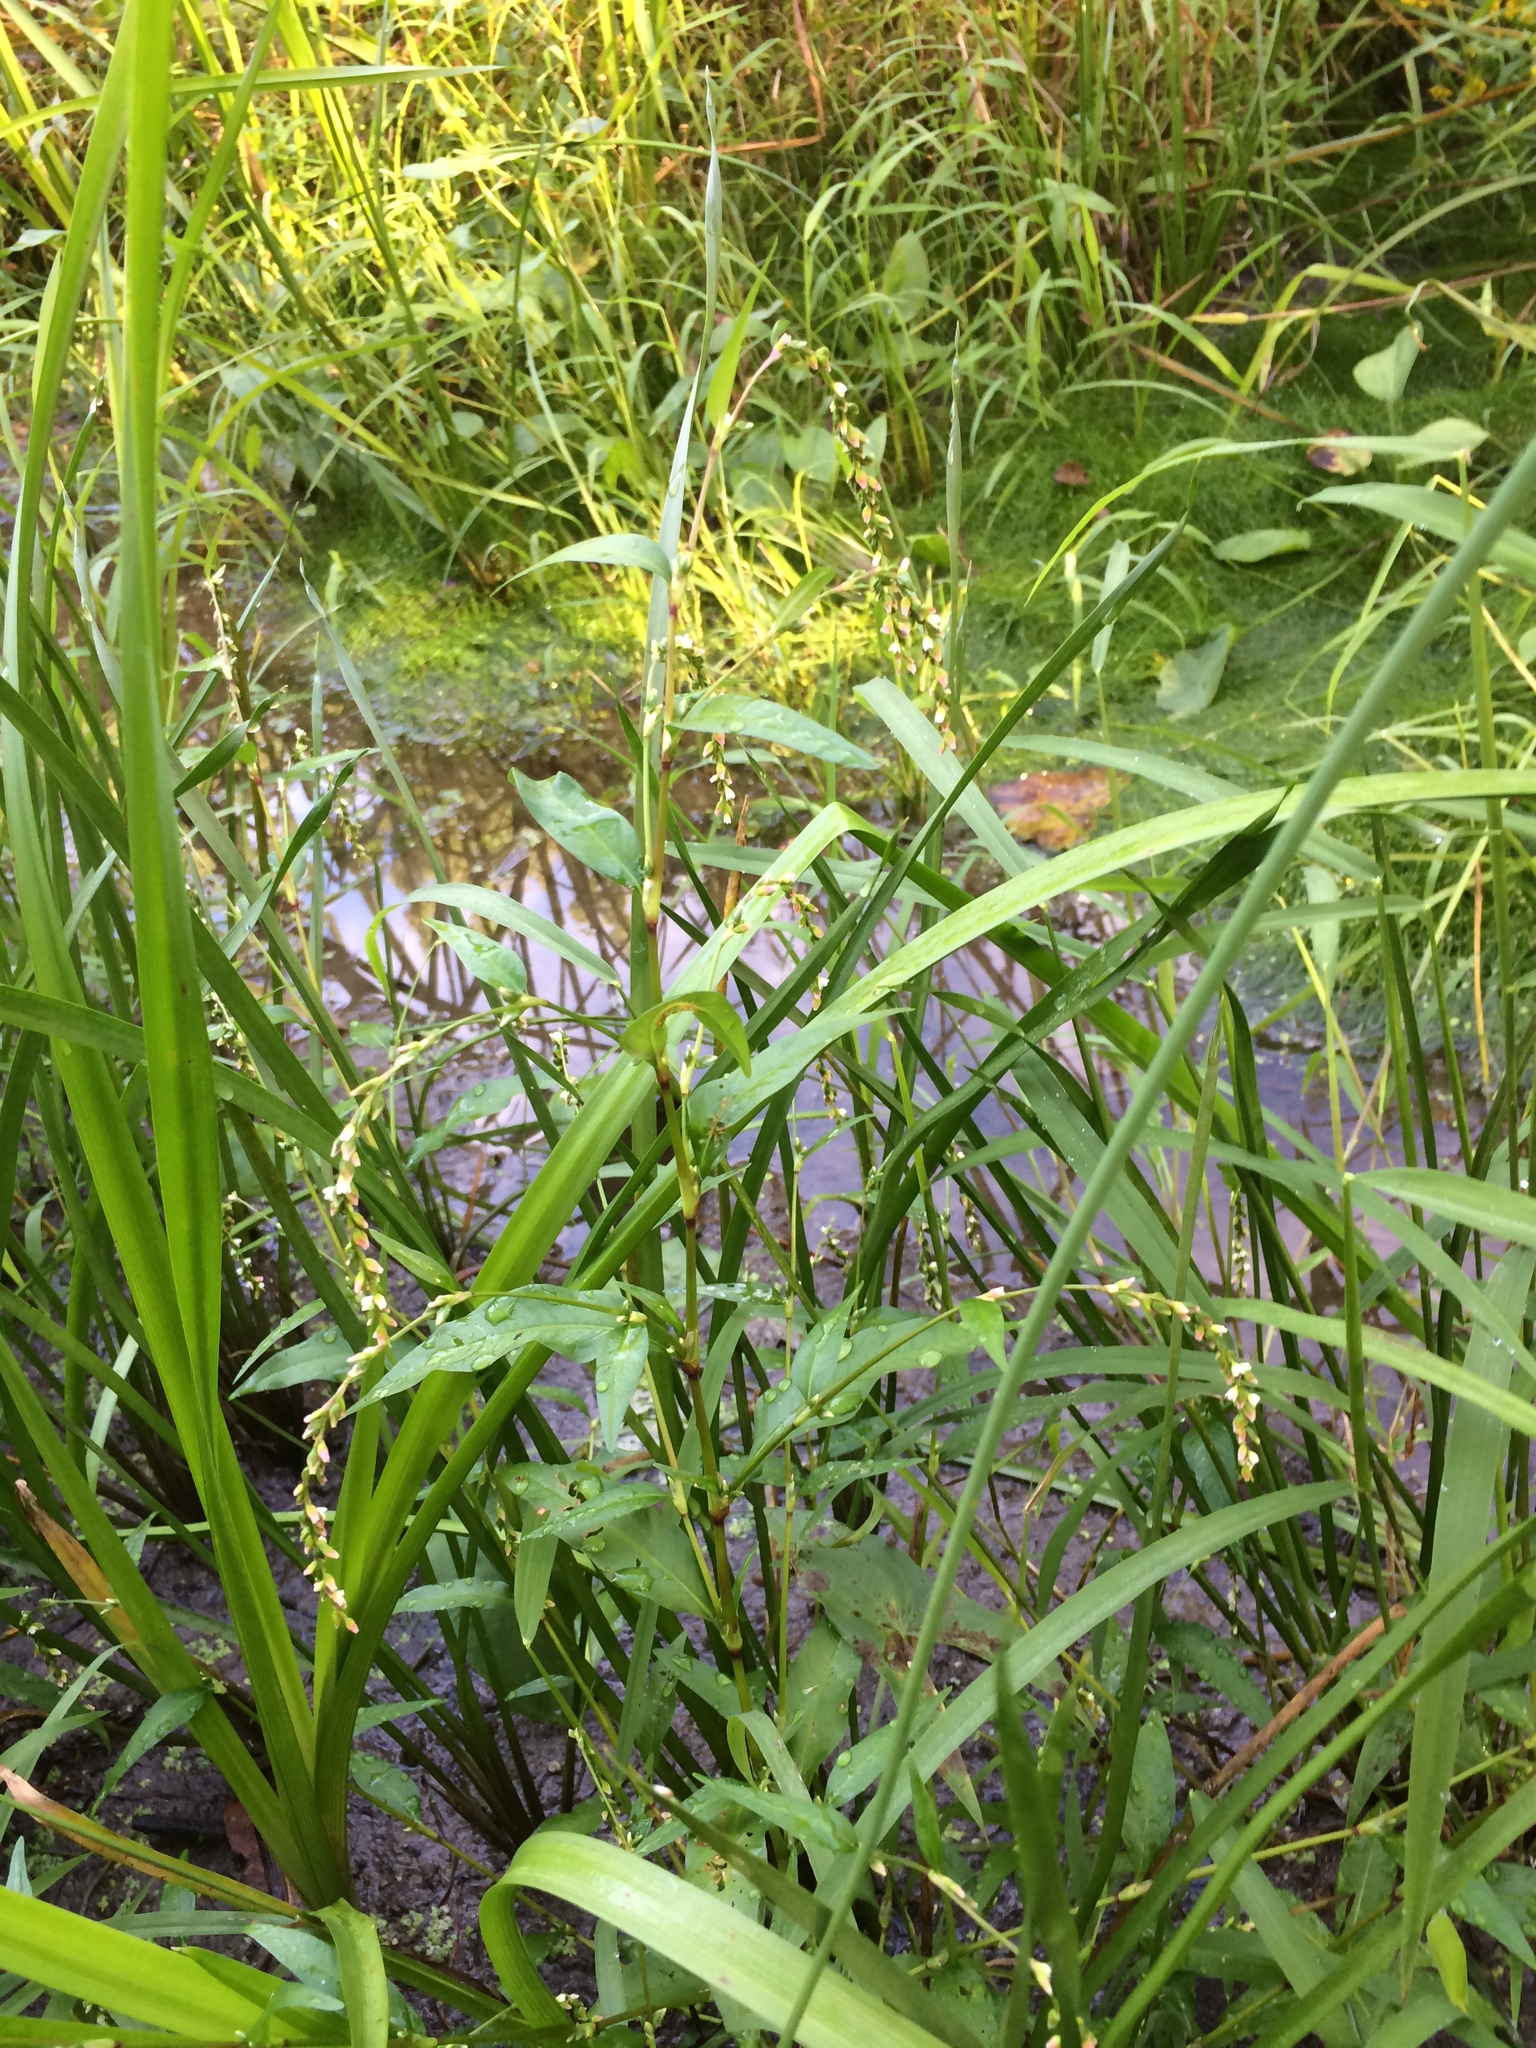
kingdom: Plantae
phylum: Tracheophyta
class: Magnoliopsida
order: Caryophyllales
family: Polygonaceae
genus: Persicaria
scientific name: Persicaria hydropiper
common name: Water-pepper
